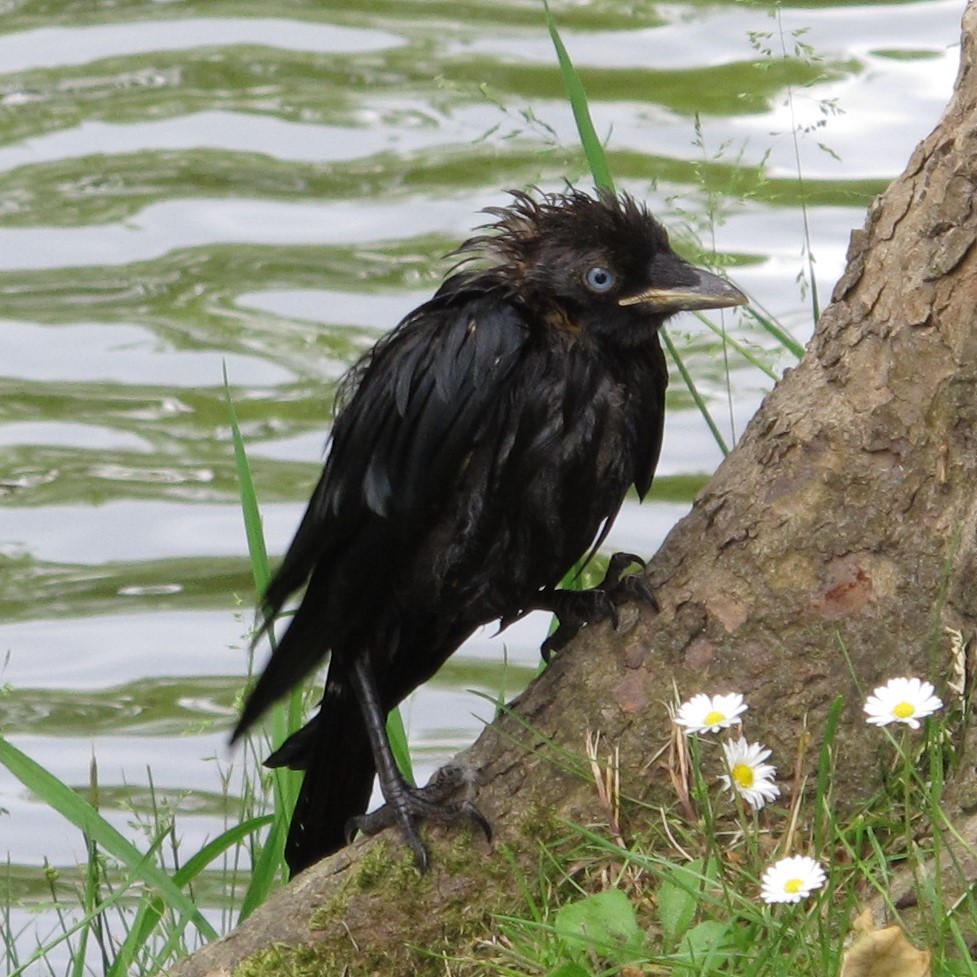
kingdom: Animalia
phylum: Chordata
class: Aves
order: Passeriformes
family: Corvidae
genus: Coloeus
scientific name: Coloeus monedula
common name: Western jackdaw
